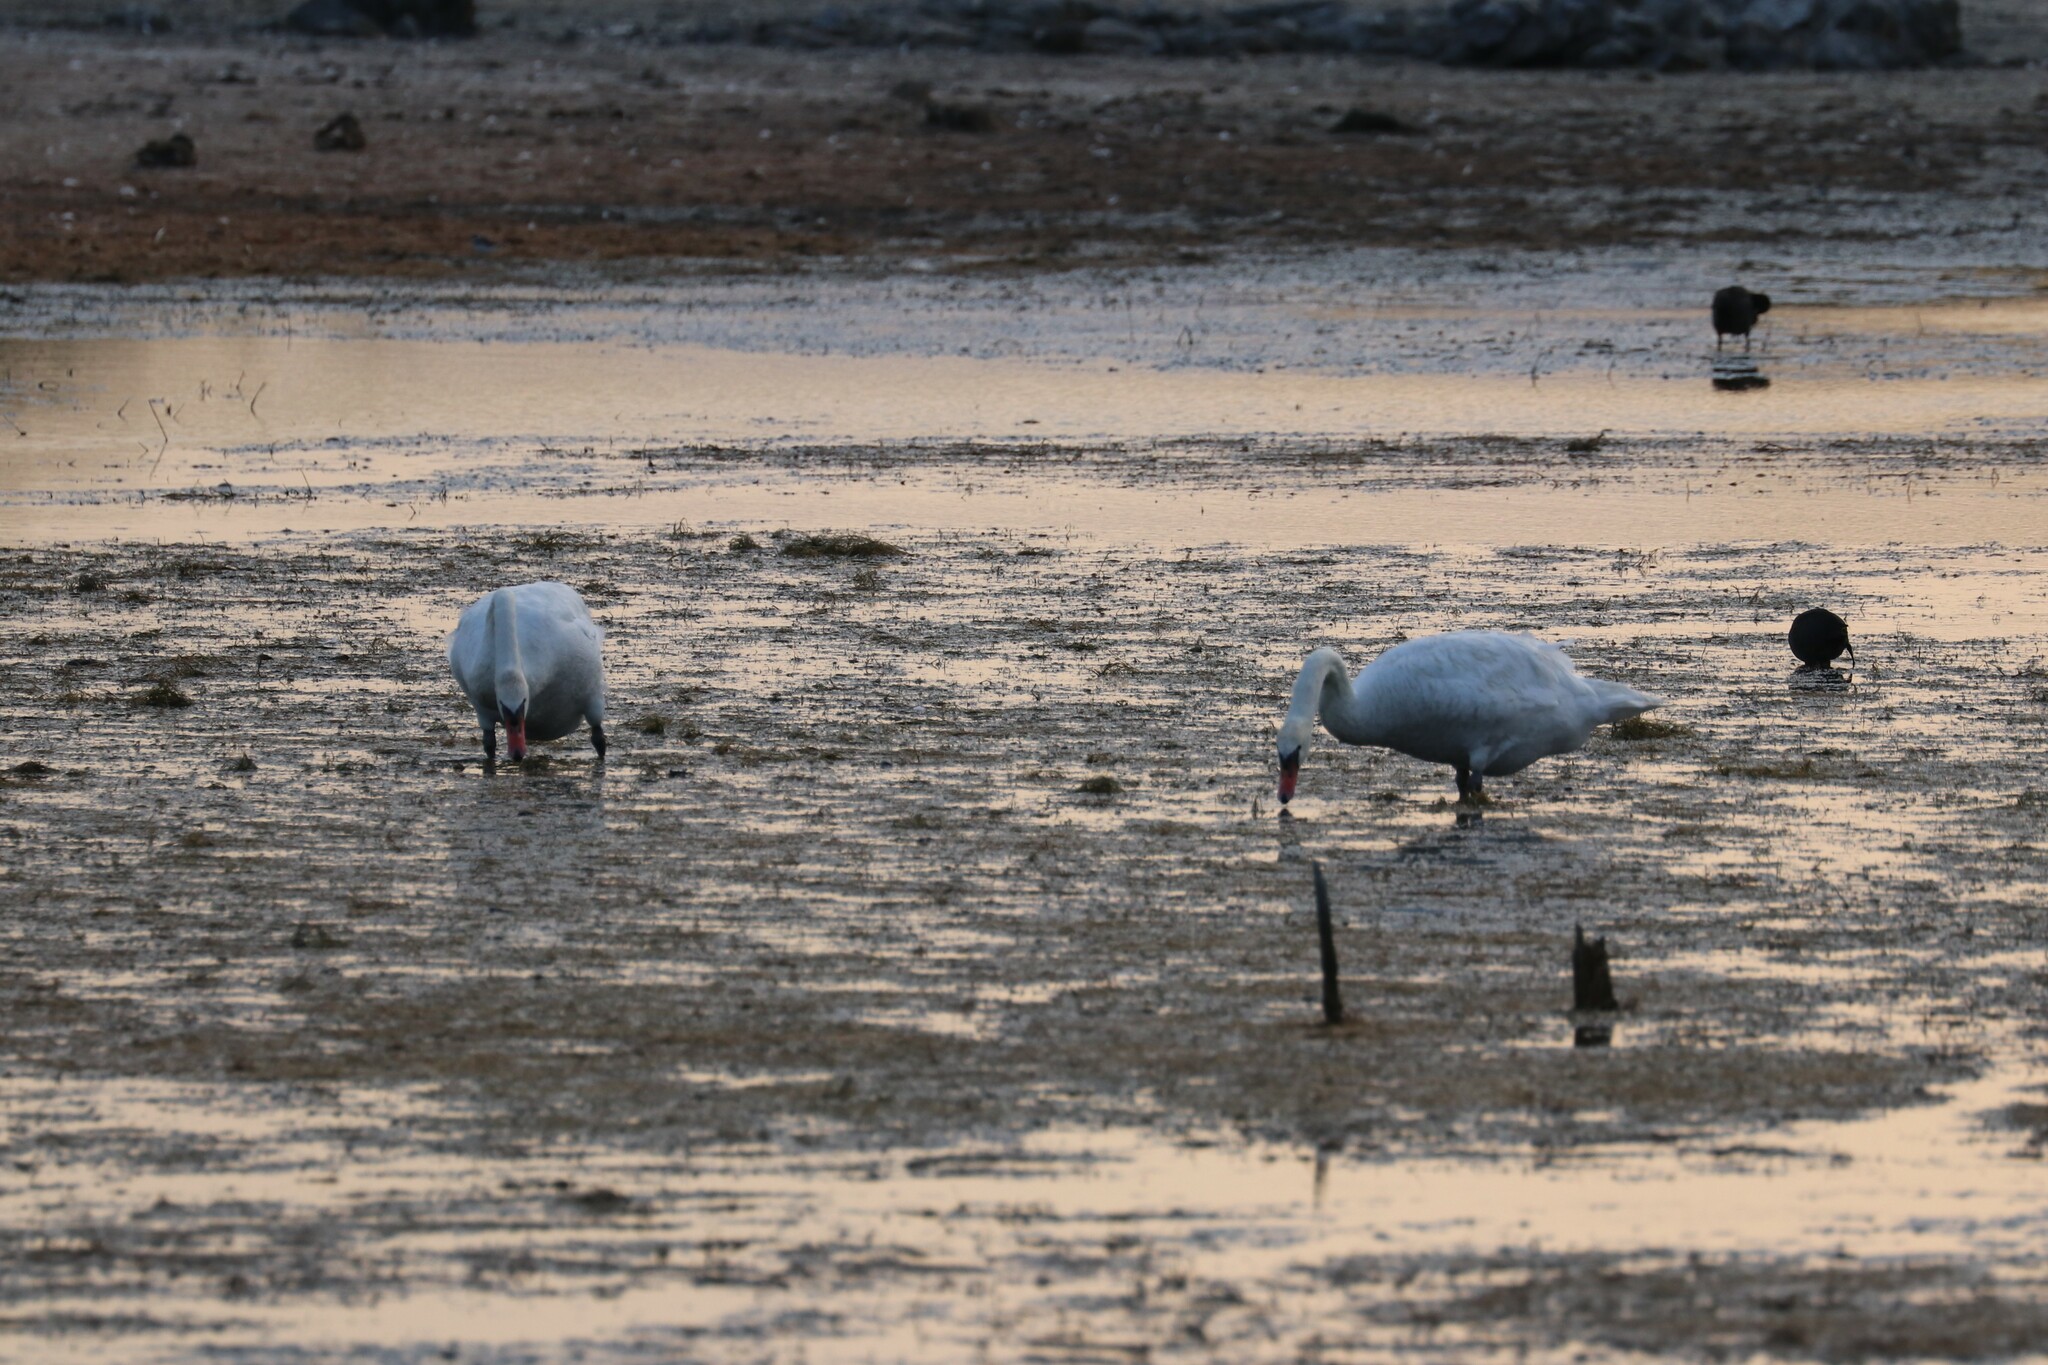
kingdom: Animalia
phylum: Chordata
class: Aves
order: Anseriformes
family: Anatidae
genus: Cygnus
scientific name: Cygnus olor
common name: Mute swan
